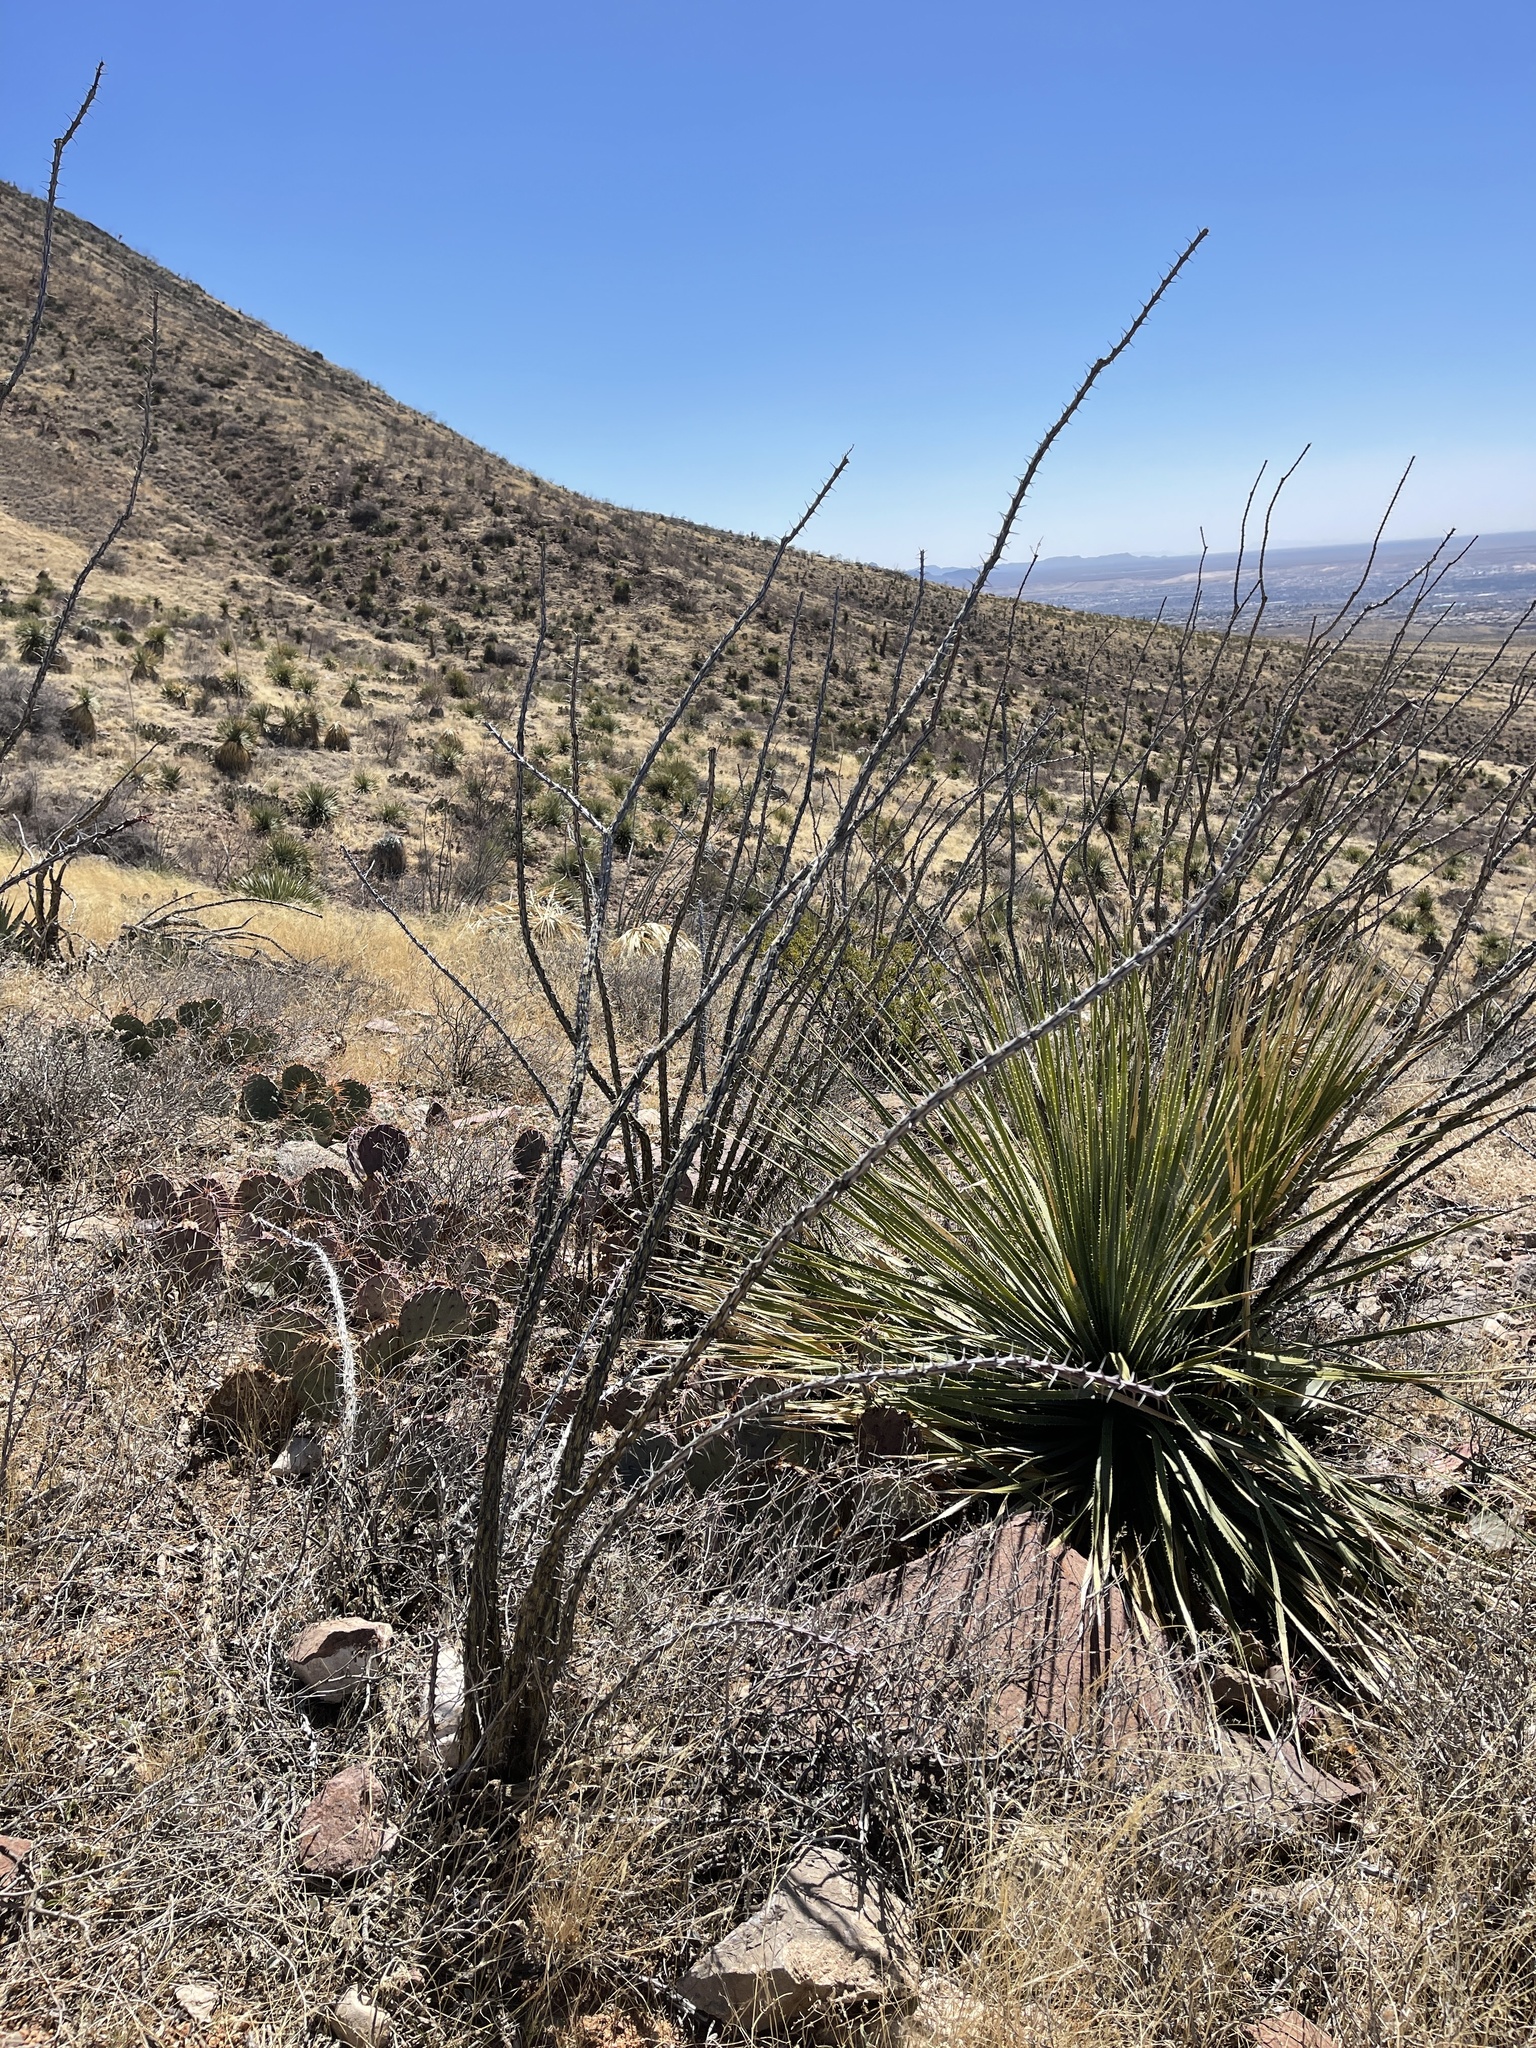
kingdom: Plantae
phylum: Tracheophyta
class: Magnoliopsida
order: Ericales
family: Fouquieriaceae
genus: Fouquieria
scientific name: Fouquieria splendens
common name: Vine-cactus
